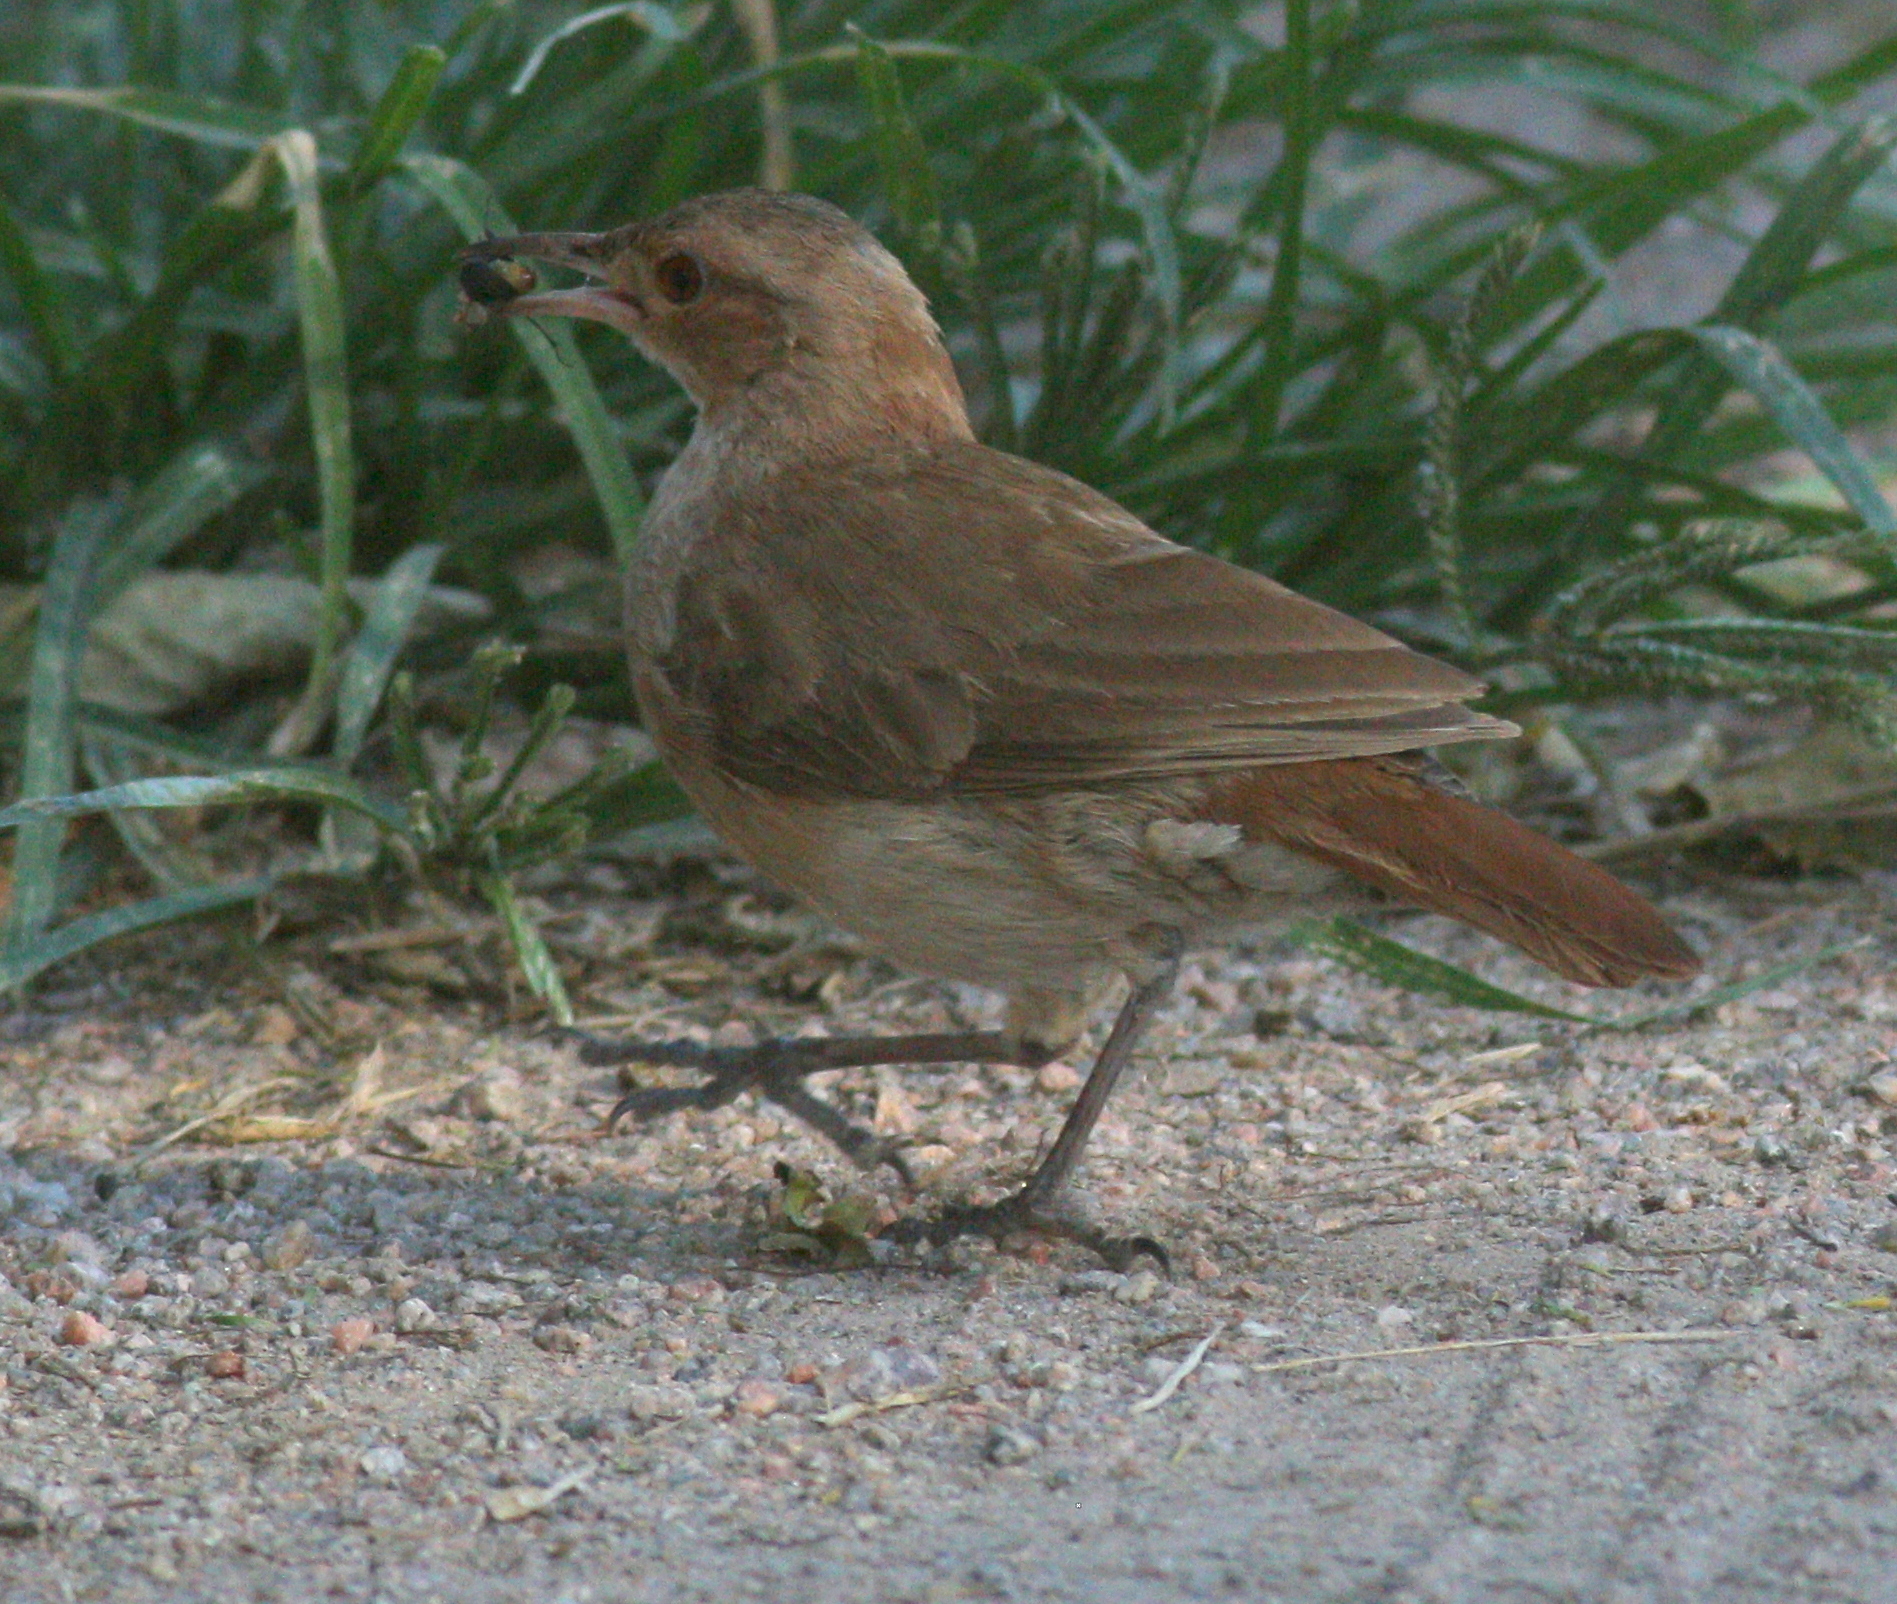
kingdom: Animalia
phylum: Chordata
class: Aves
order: Passeriformes
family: Furnariidae
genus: Furnarius
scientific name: Furnarius rufus
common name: Rufous hornero
